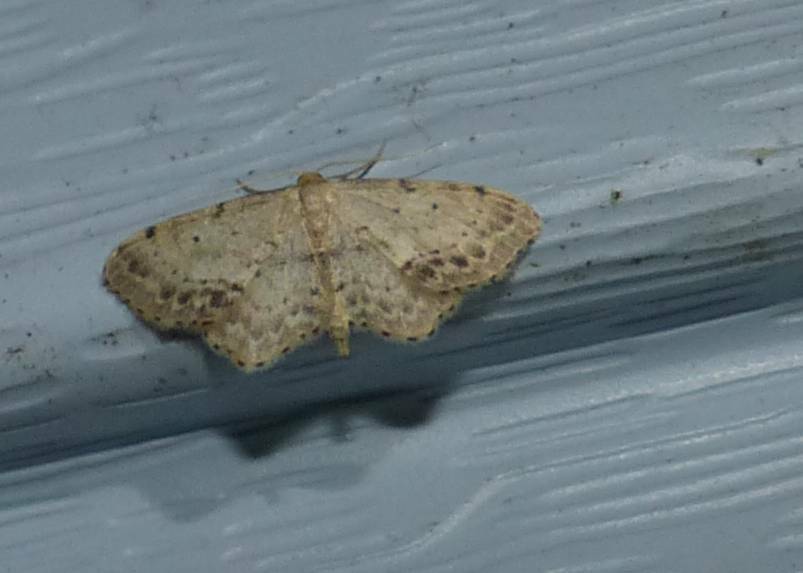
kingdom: Animalia
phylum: Arthropoda
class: Insecta
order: Lepidoptera
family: Geometridae
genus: Idaea
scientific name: Idaea dimidiata
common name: Single-dotted wave
